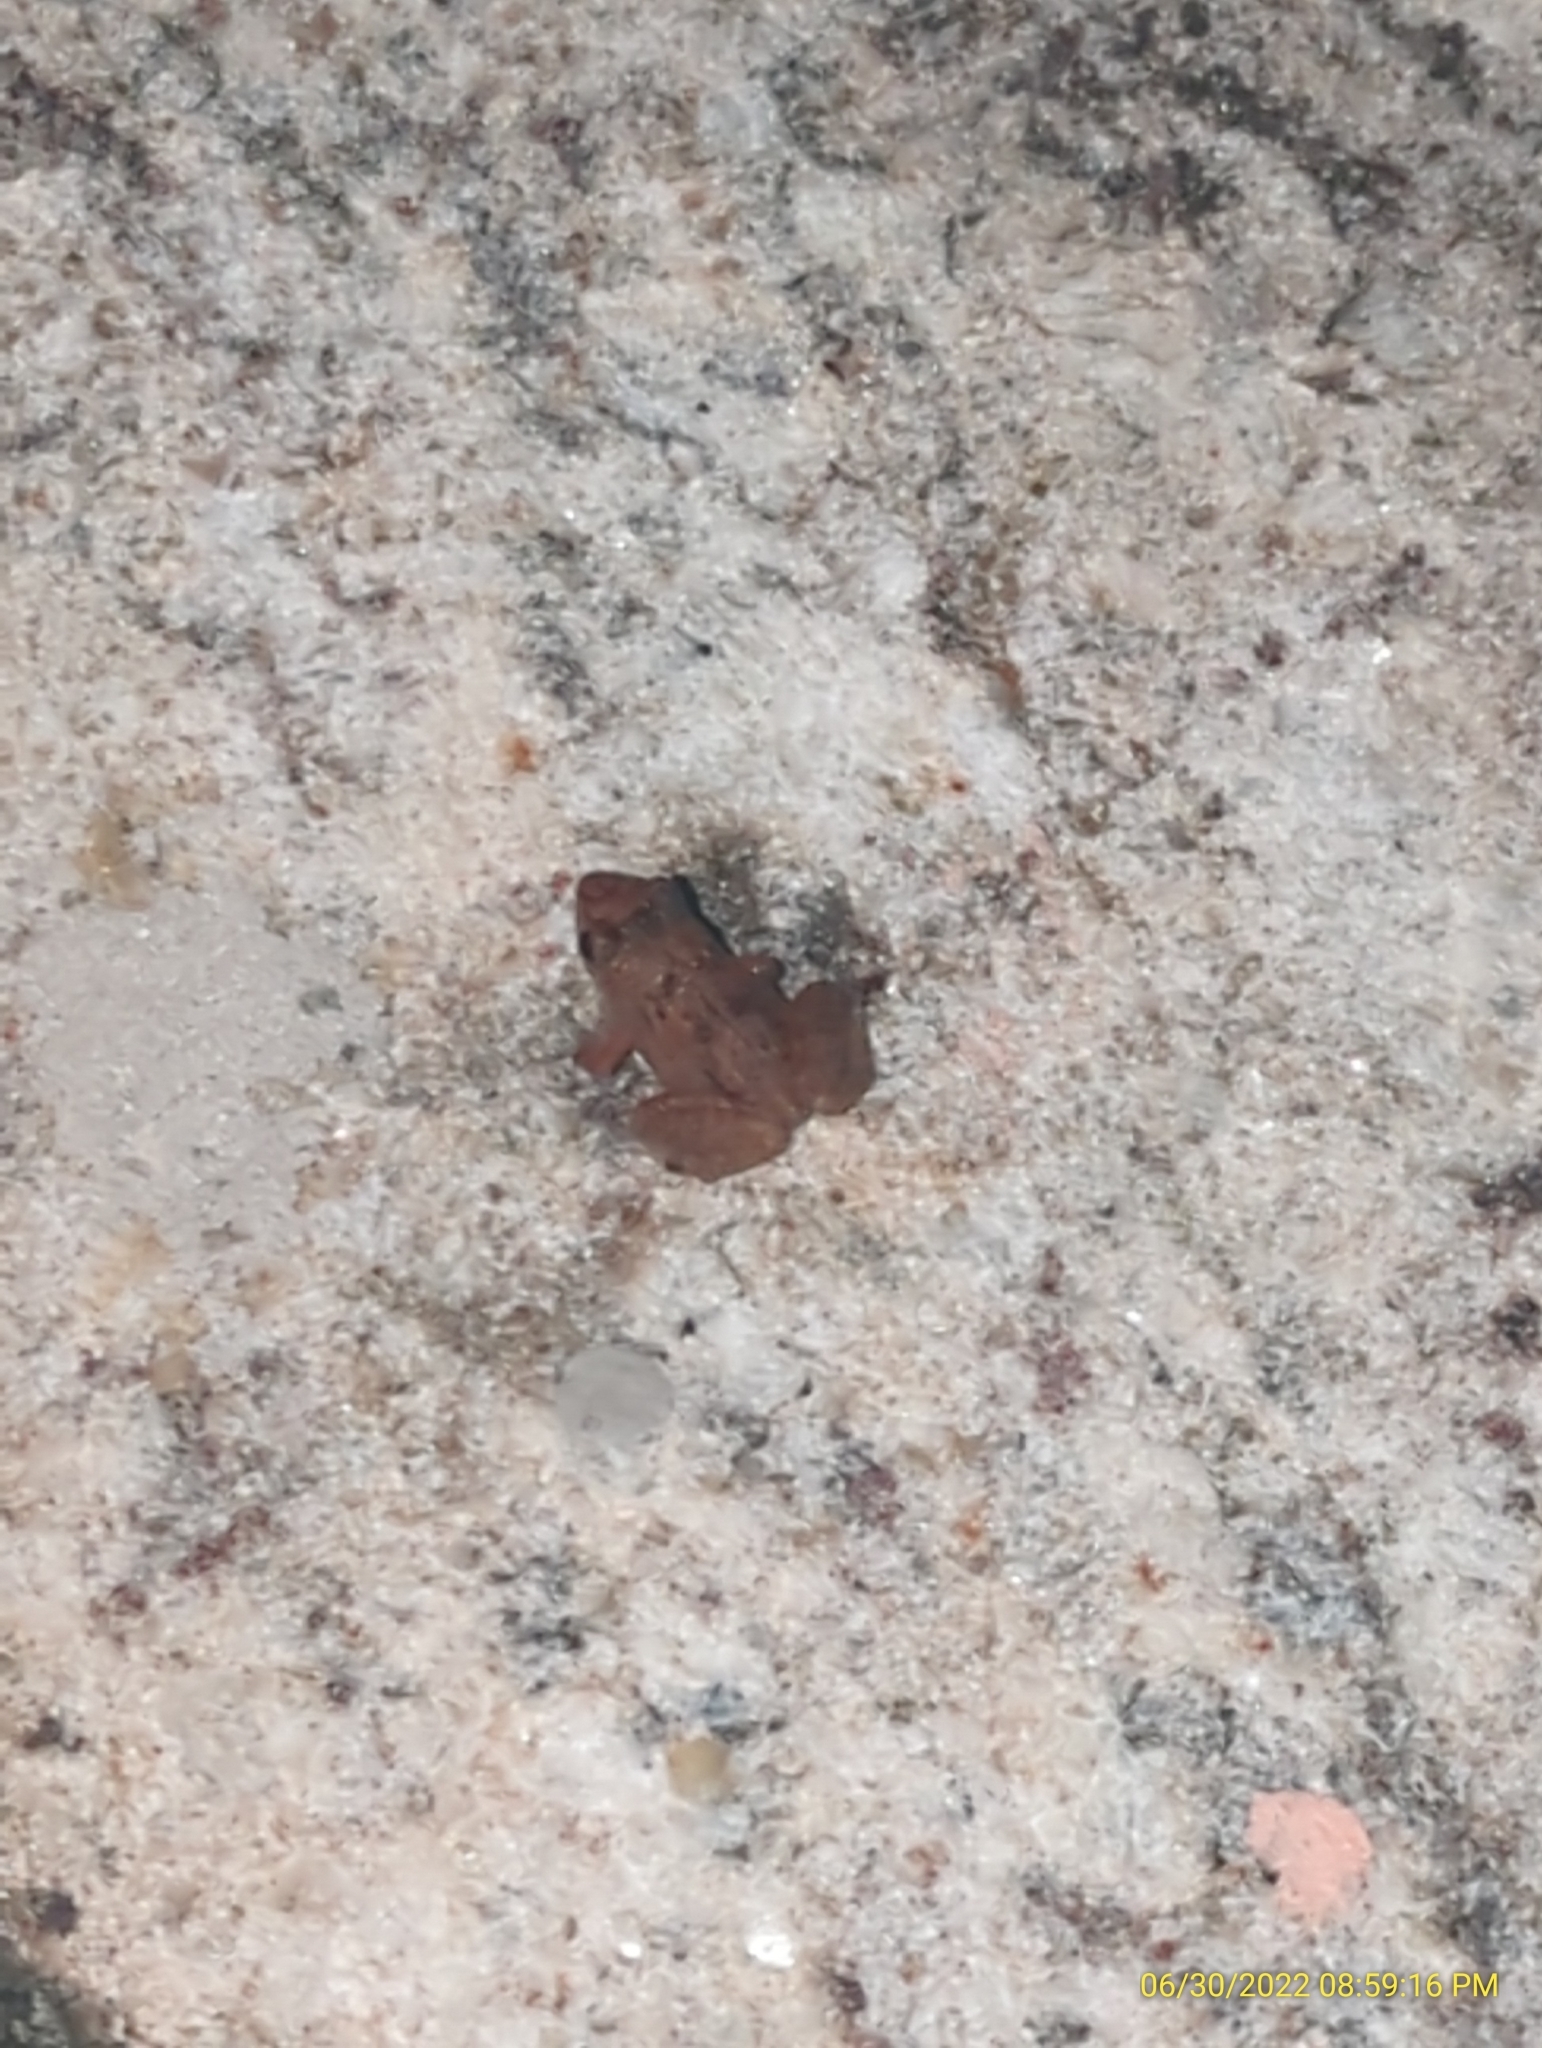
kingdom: Animalia
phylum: Chordata
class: Amphibia
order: Anura
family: Eleutherodactylidae
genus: Eleutherodactylus
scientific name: Eleutherodactylus planirostris
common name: Greenhouse frog
